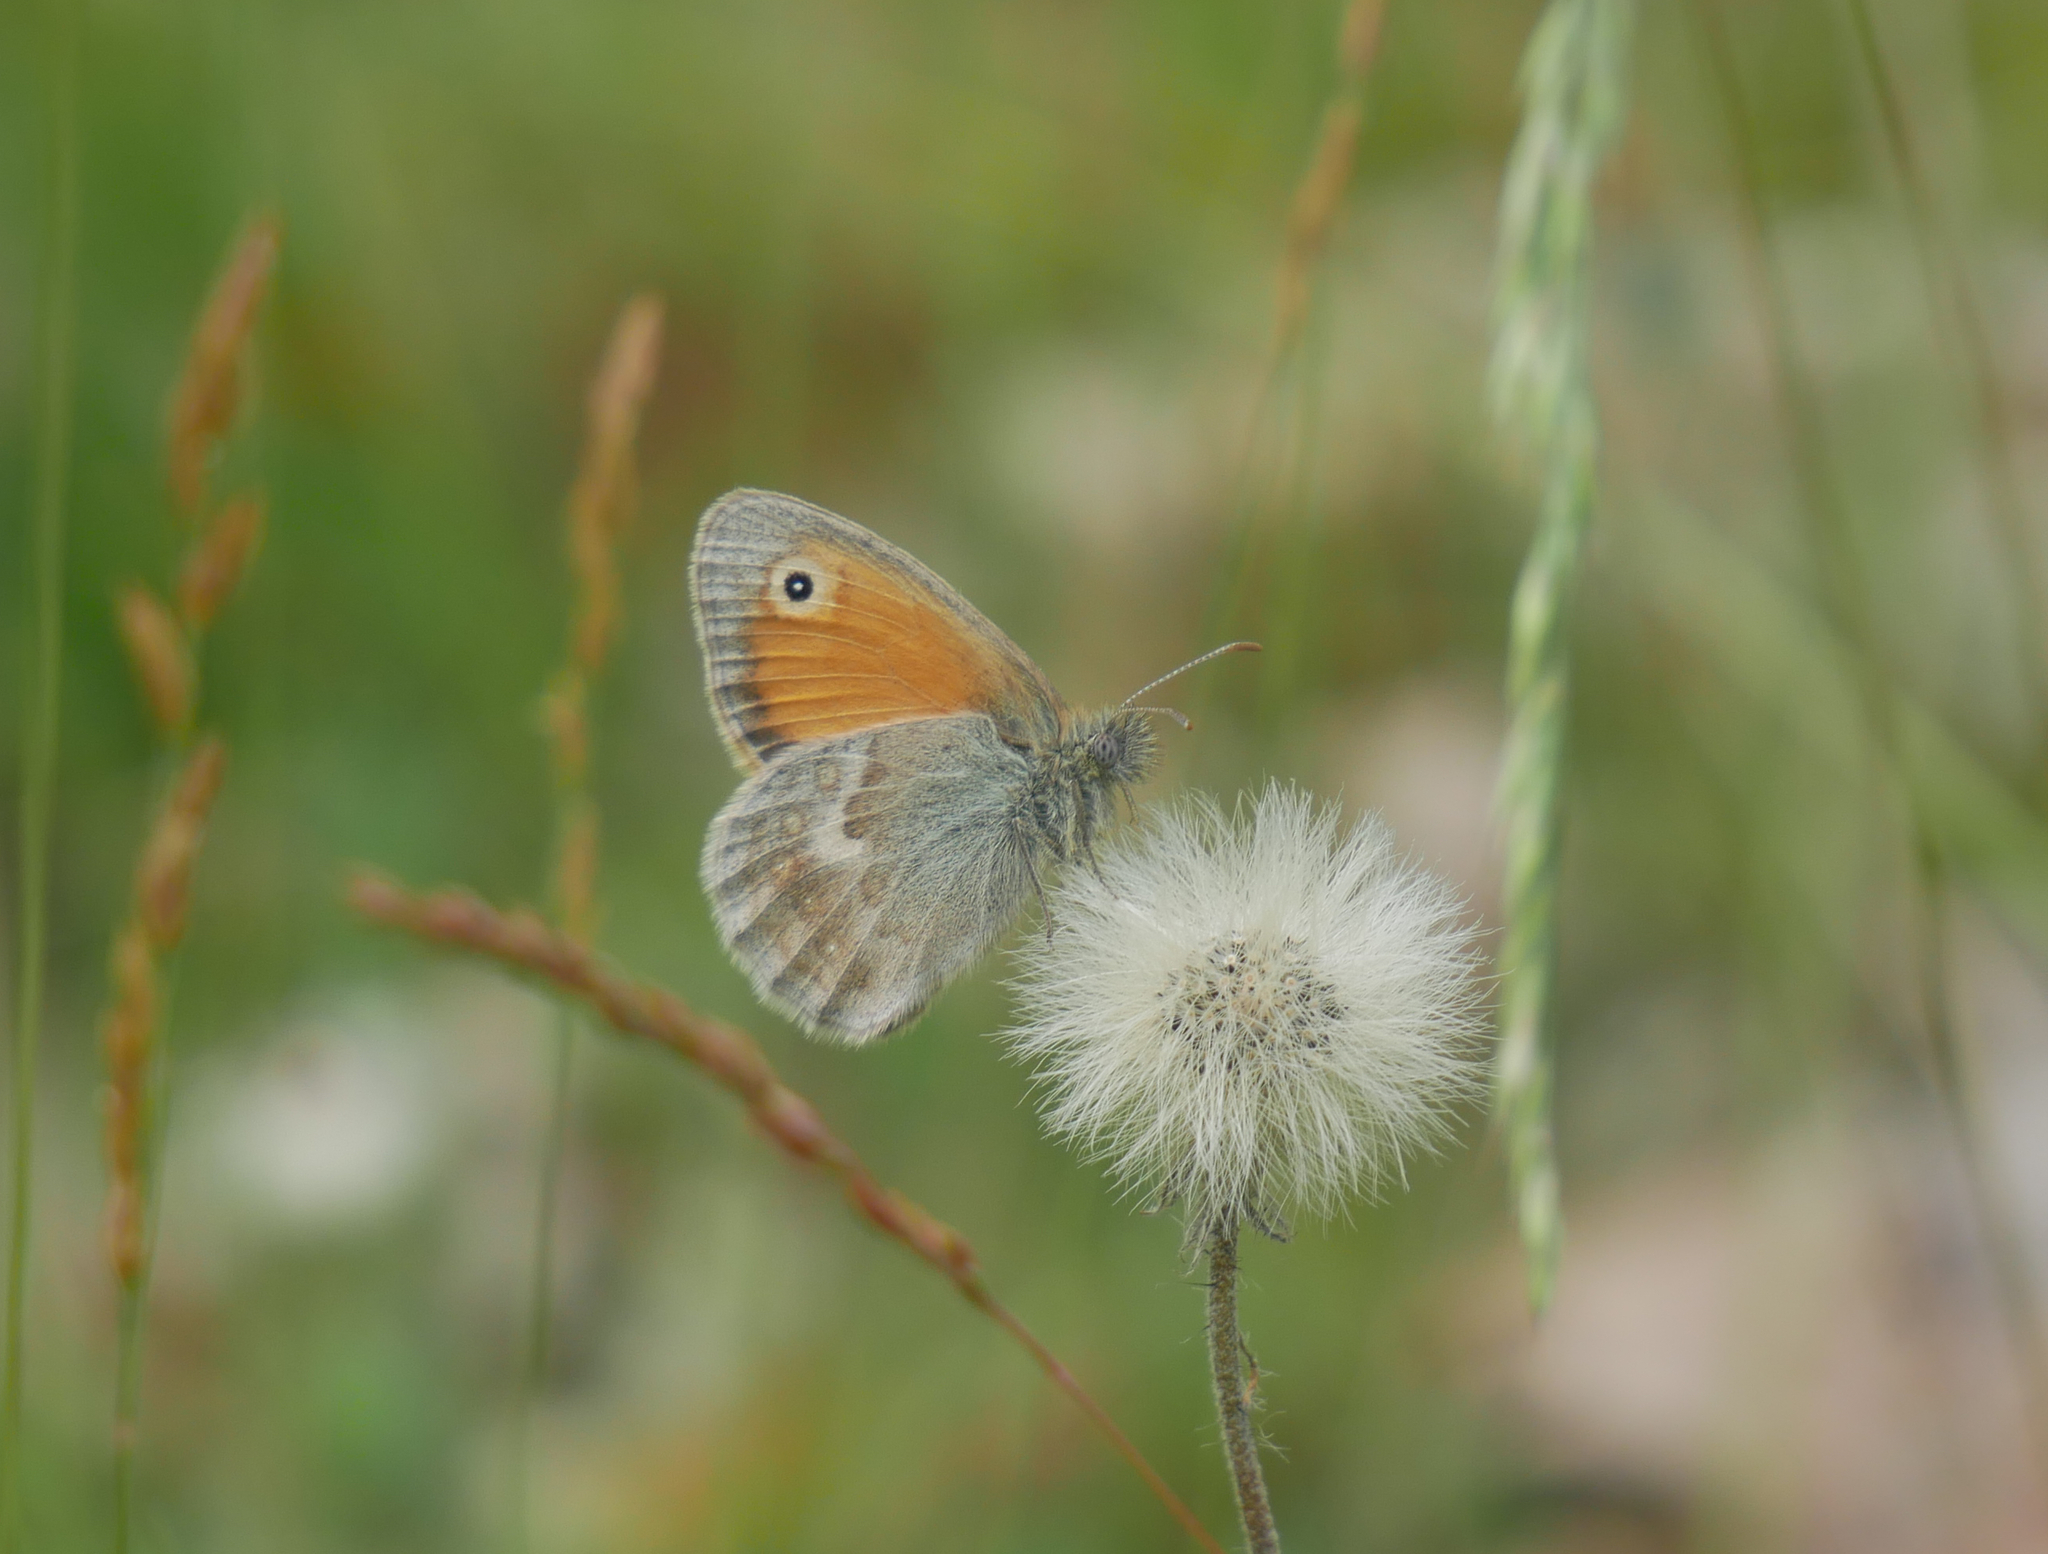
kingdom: Animalia
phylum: Arthropoda
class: Insecta
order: Lepidoptera
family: Nymphalidae
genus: Coenonympha
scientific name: Coenonympha pamphilus
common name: Small heath
